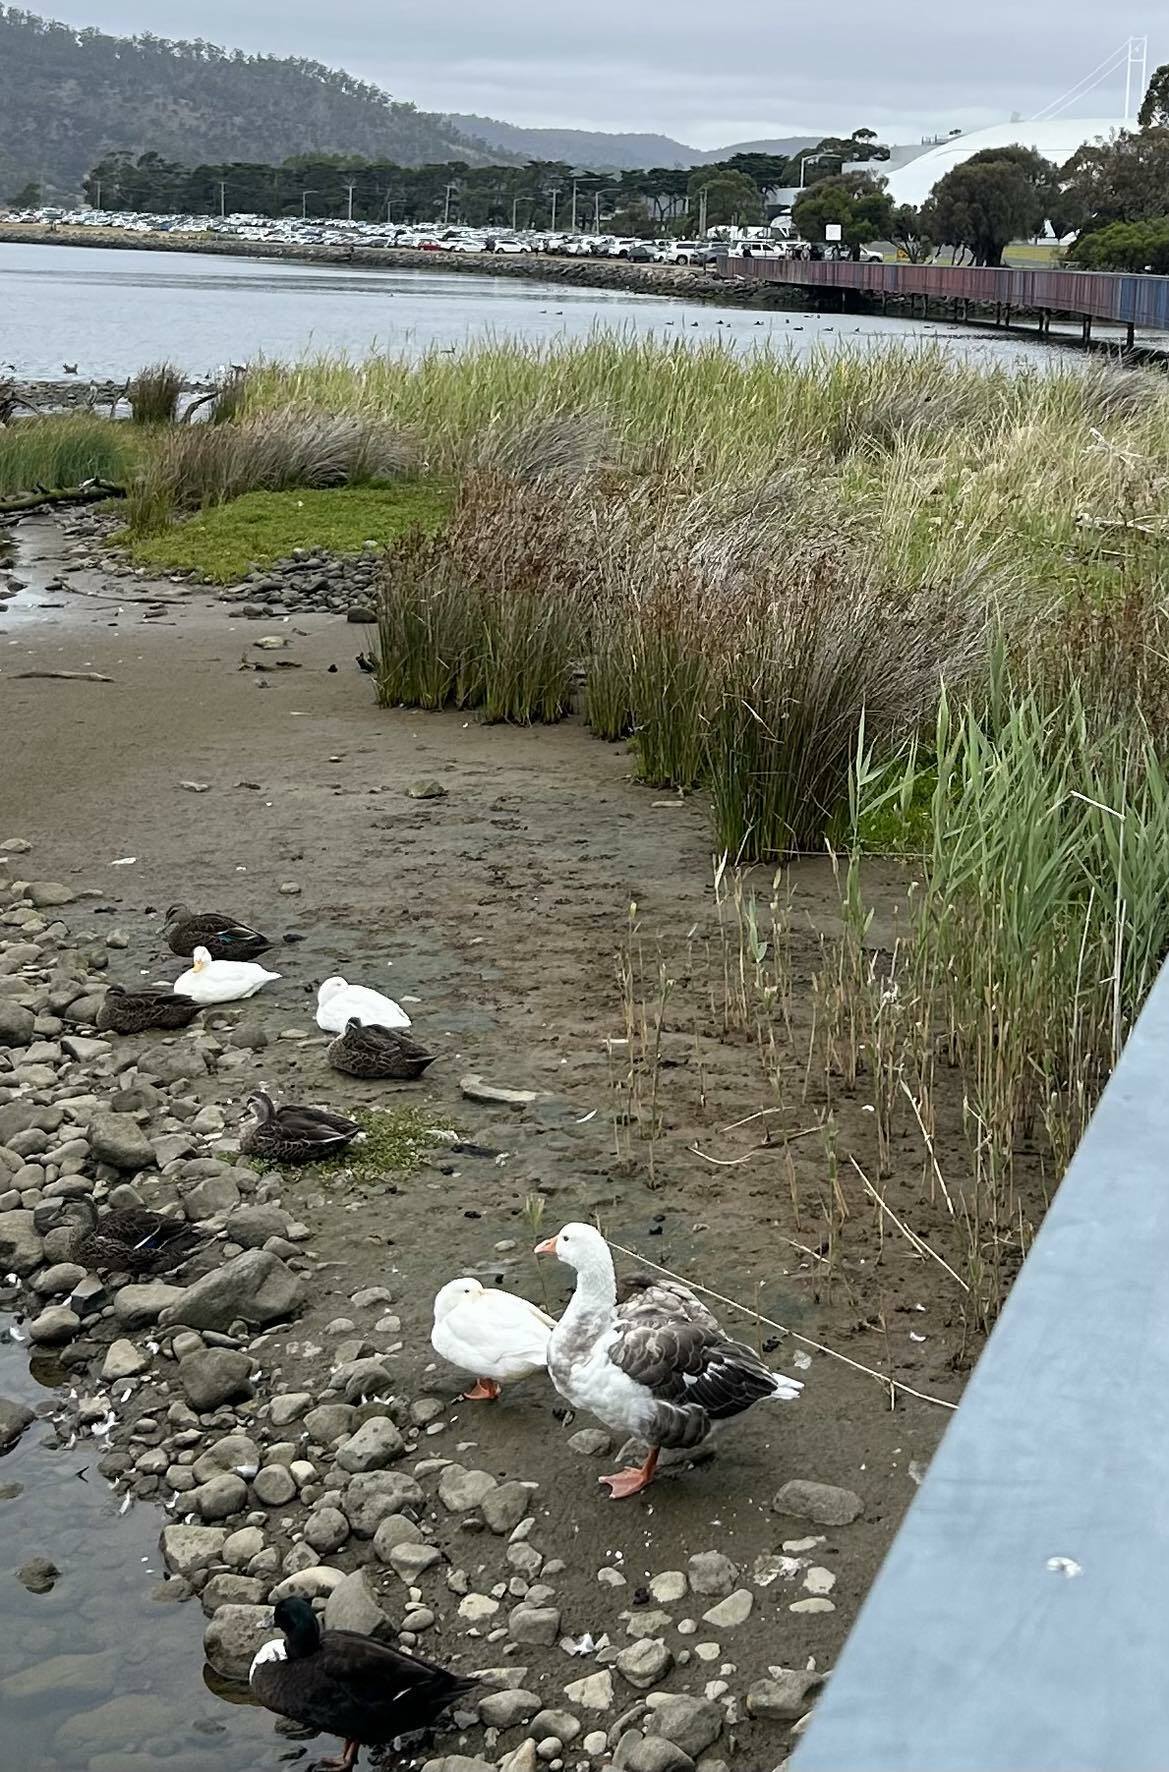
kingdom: Animalia
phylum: Chordata
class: Aves
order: Anseriformes
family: Anatidae
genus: Anas
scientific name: Anas platyrhynchos
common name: Mallard
